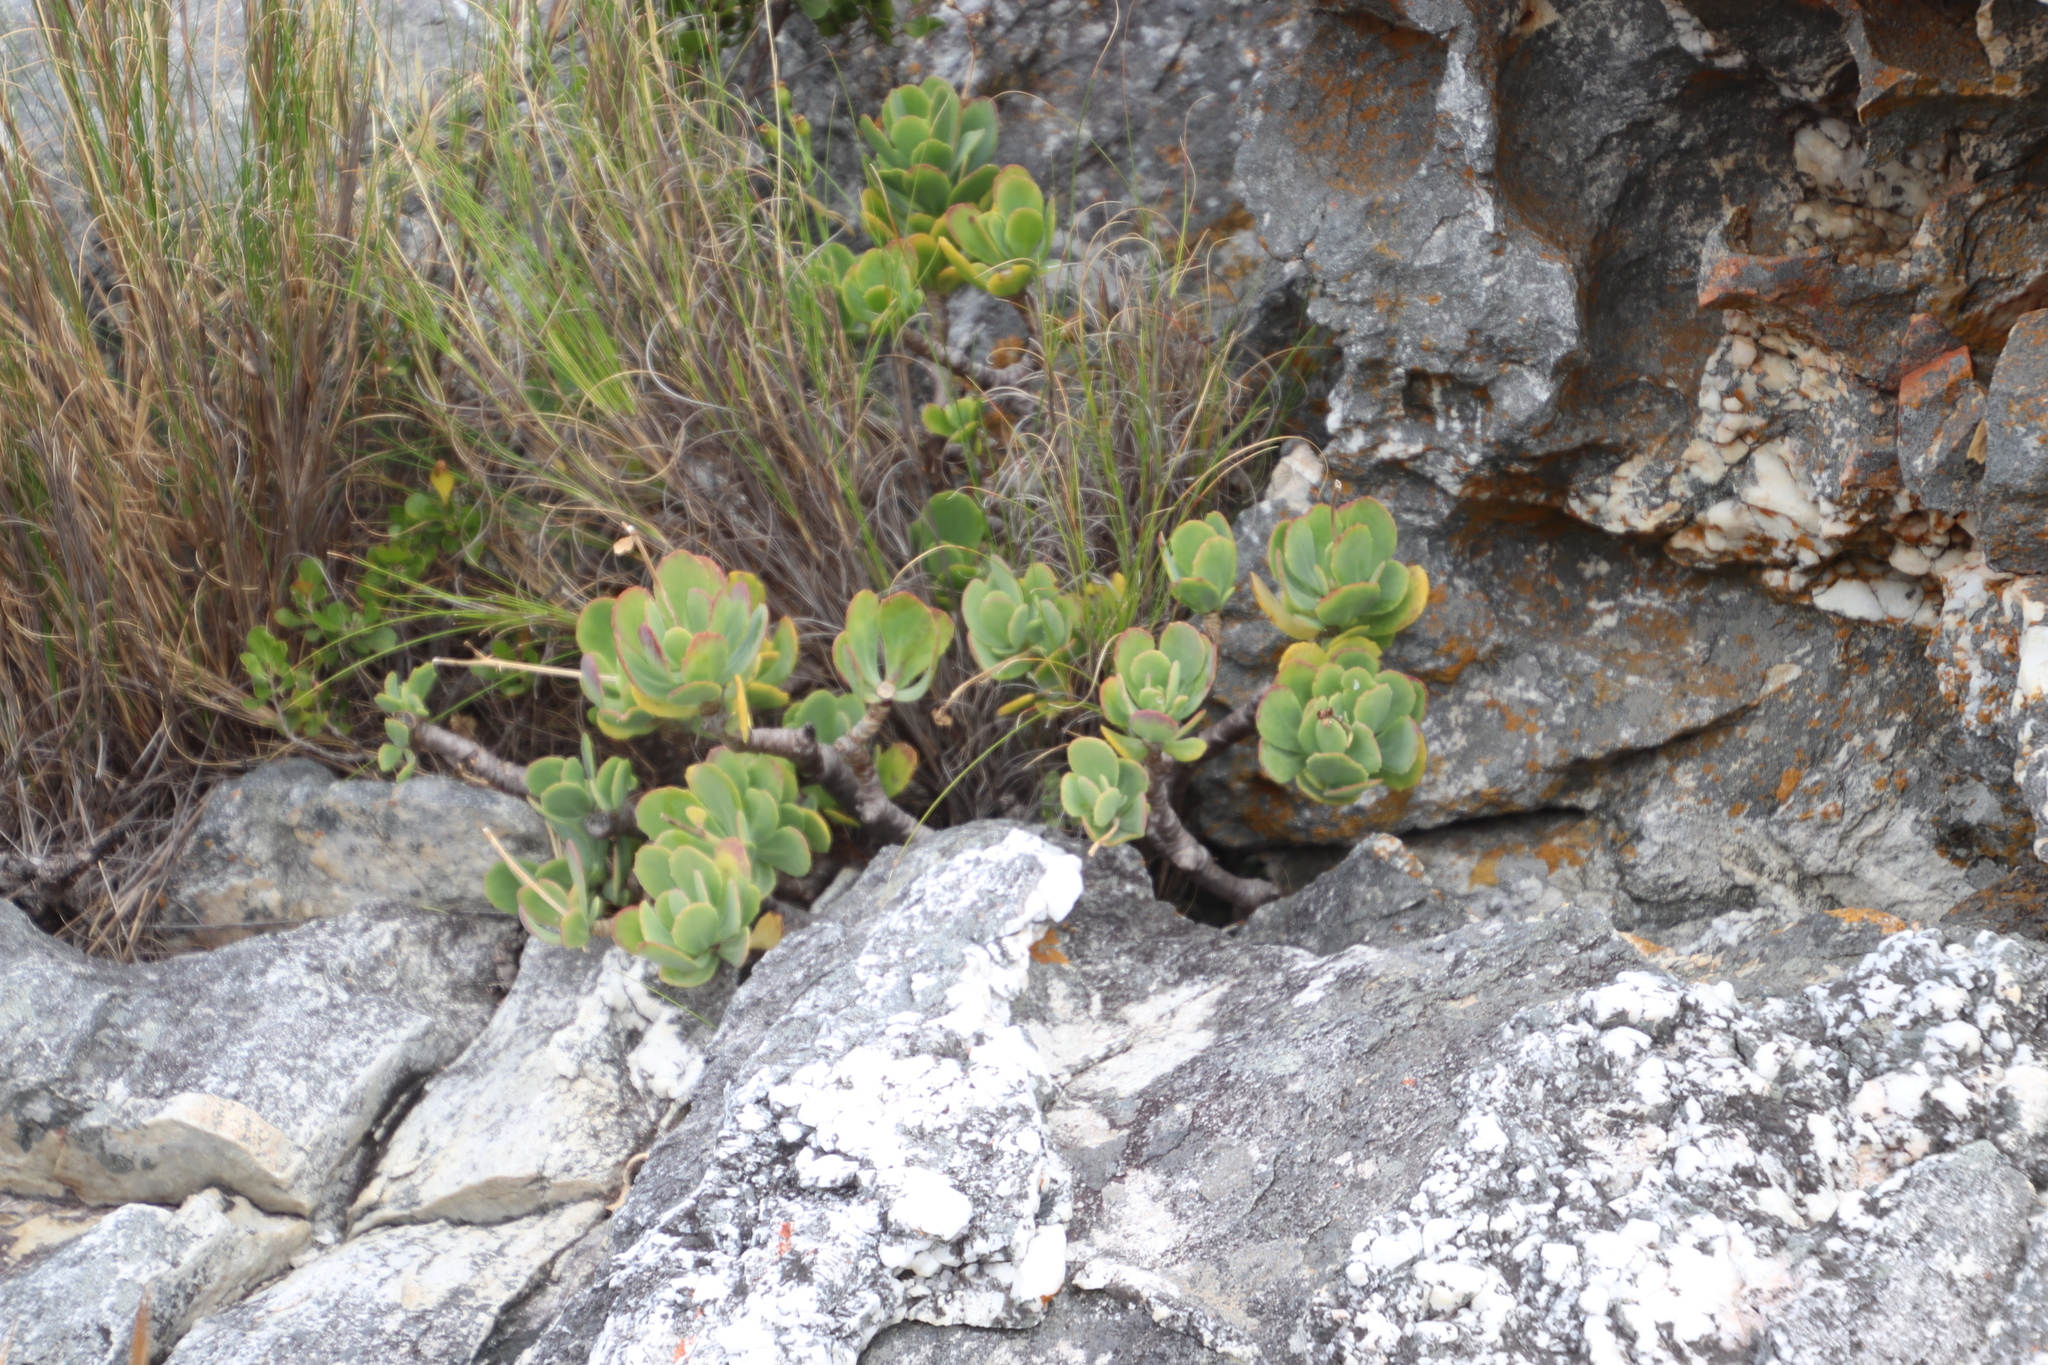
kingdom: Plantae
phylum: Tracheophyta
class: Magnoliopsida
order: Asterales
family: Asteraceae
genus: Othonna
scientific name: Othonna dentata
